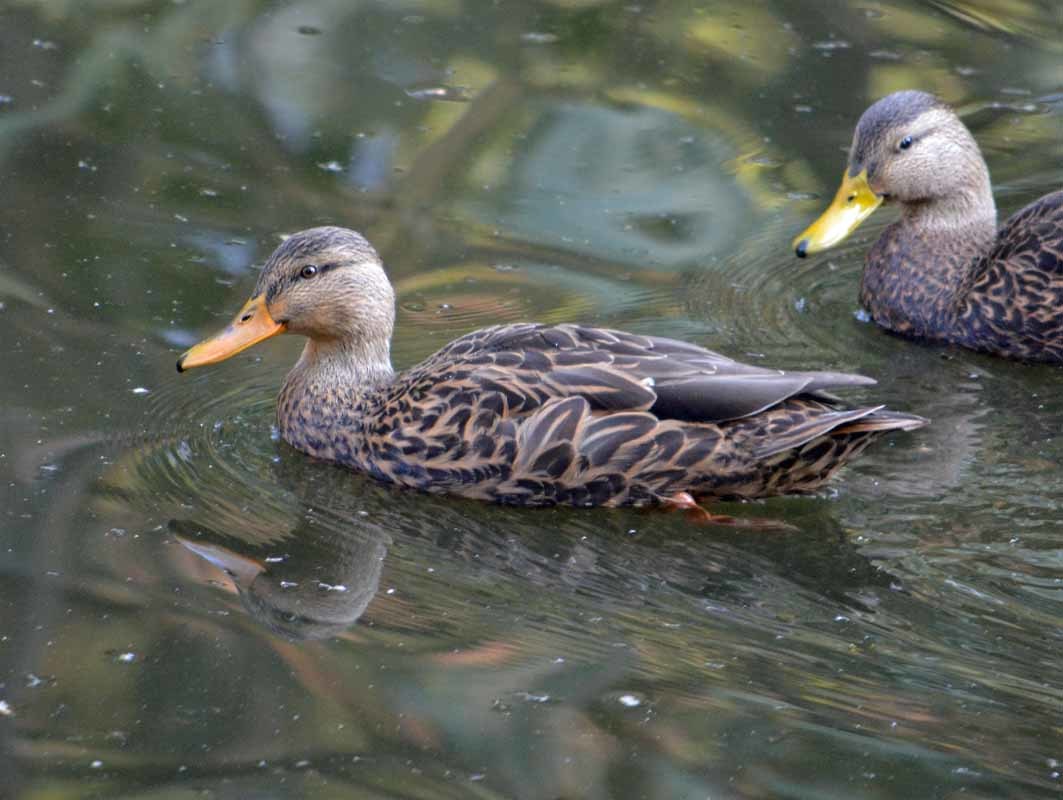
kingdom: Animalia
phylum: Chordata
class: Aves
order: Anseriformes
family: Anatidae
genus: Anas
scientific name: Anas diazi
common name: Mexican duck
